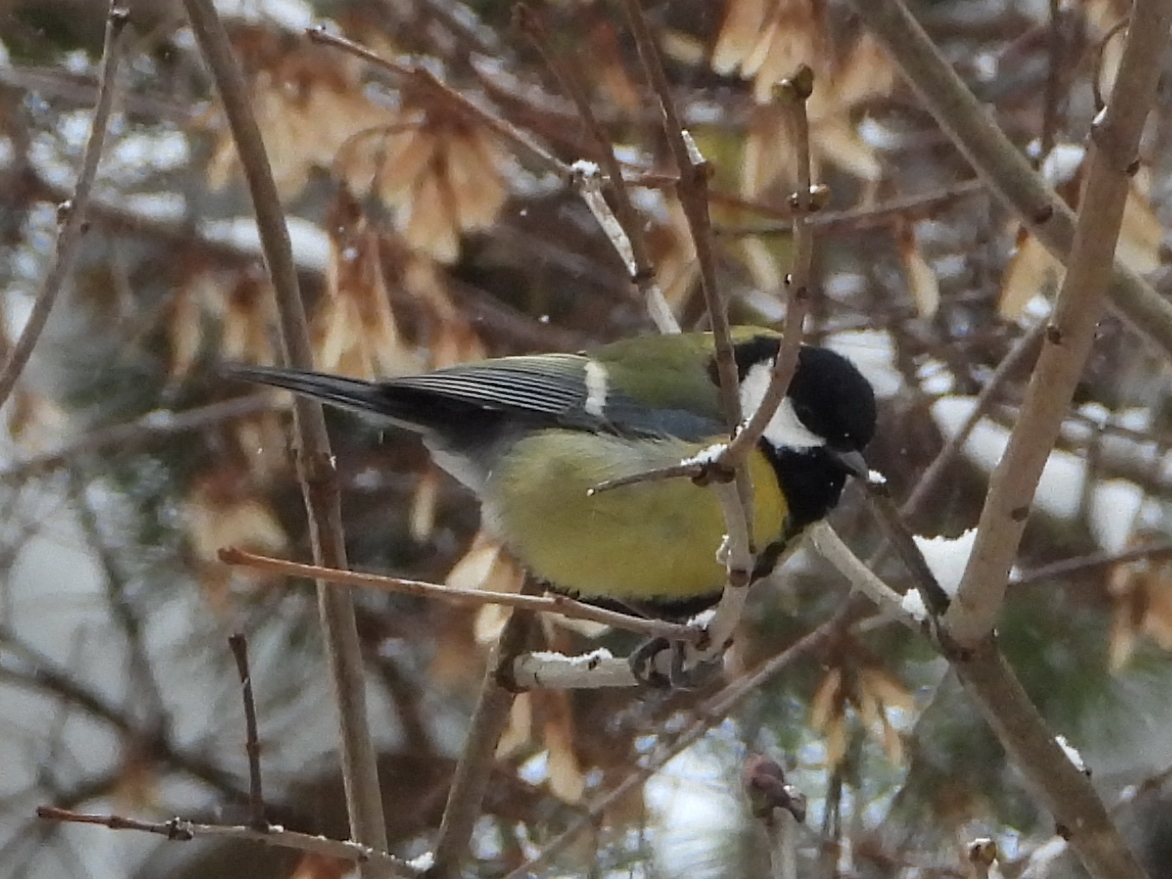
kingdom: Animalia
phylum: Chordata
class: Aves
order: Passeriformes
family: Paridae
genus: Parus
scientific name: Parus major
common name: Great tit
